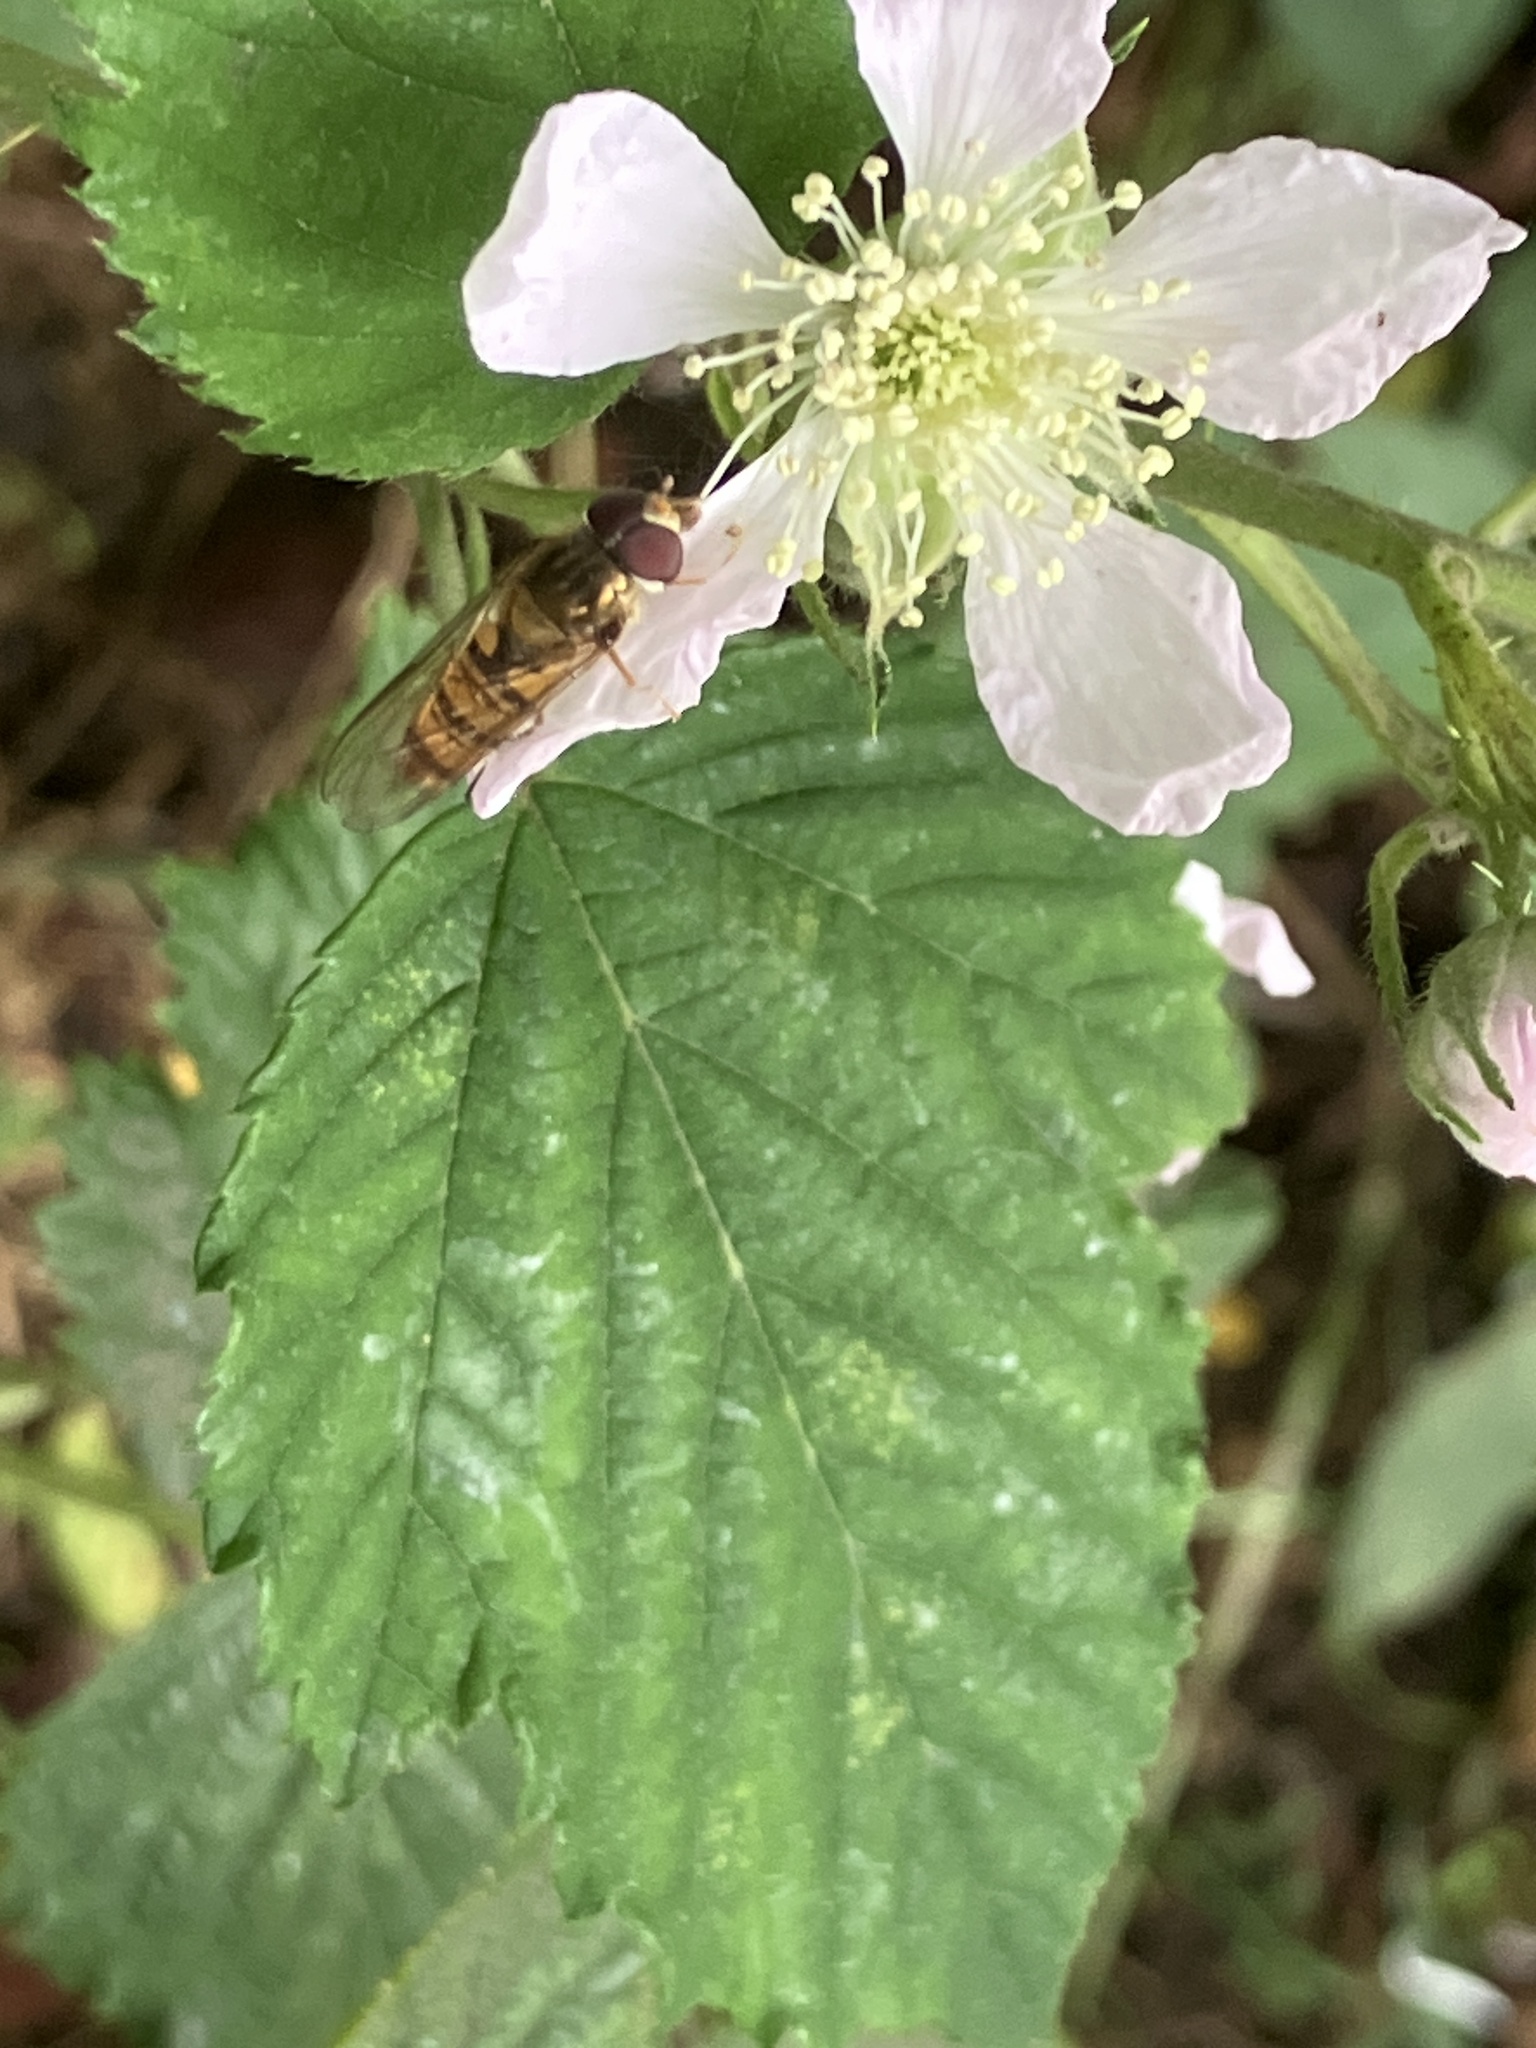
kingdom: Animalia
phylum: Arthropoda
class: Insecta
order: Diptera
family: Syrphidae
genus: Episyrphus
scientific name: Episyrphus balteatus
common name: Marmalade hoverfly
